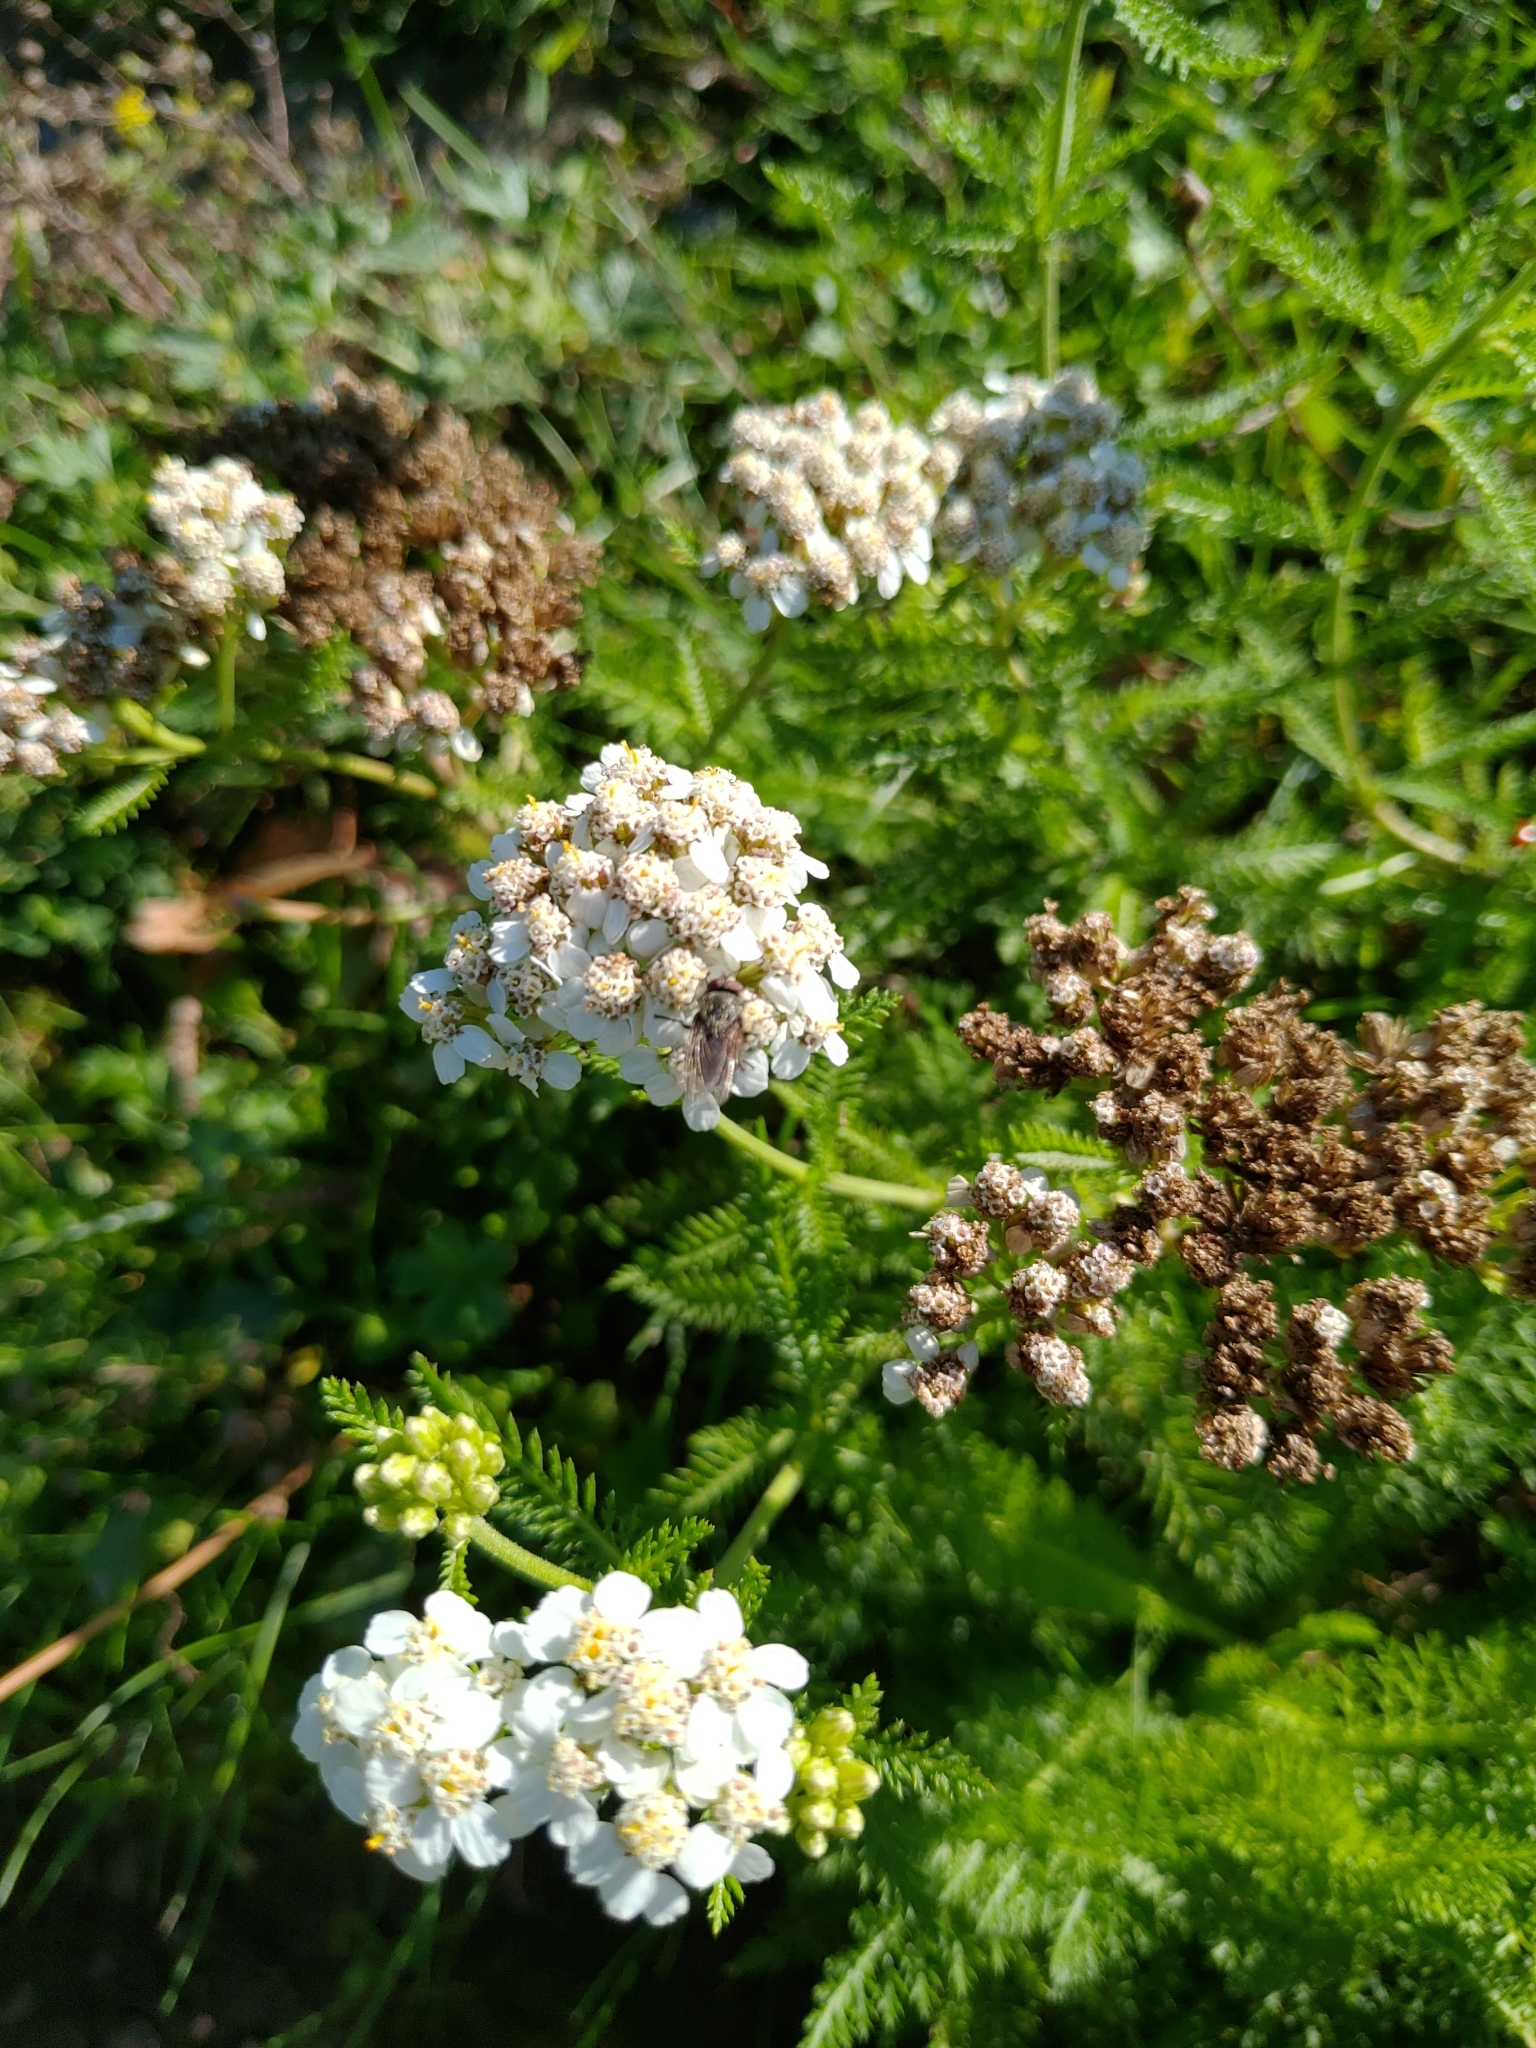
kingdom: Plantae
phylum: Tracheophyta
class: Magnoliopsida
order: Asterales
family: Asteraceae
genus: Achillea
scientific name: Achillea millefolium
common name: Yarrow
